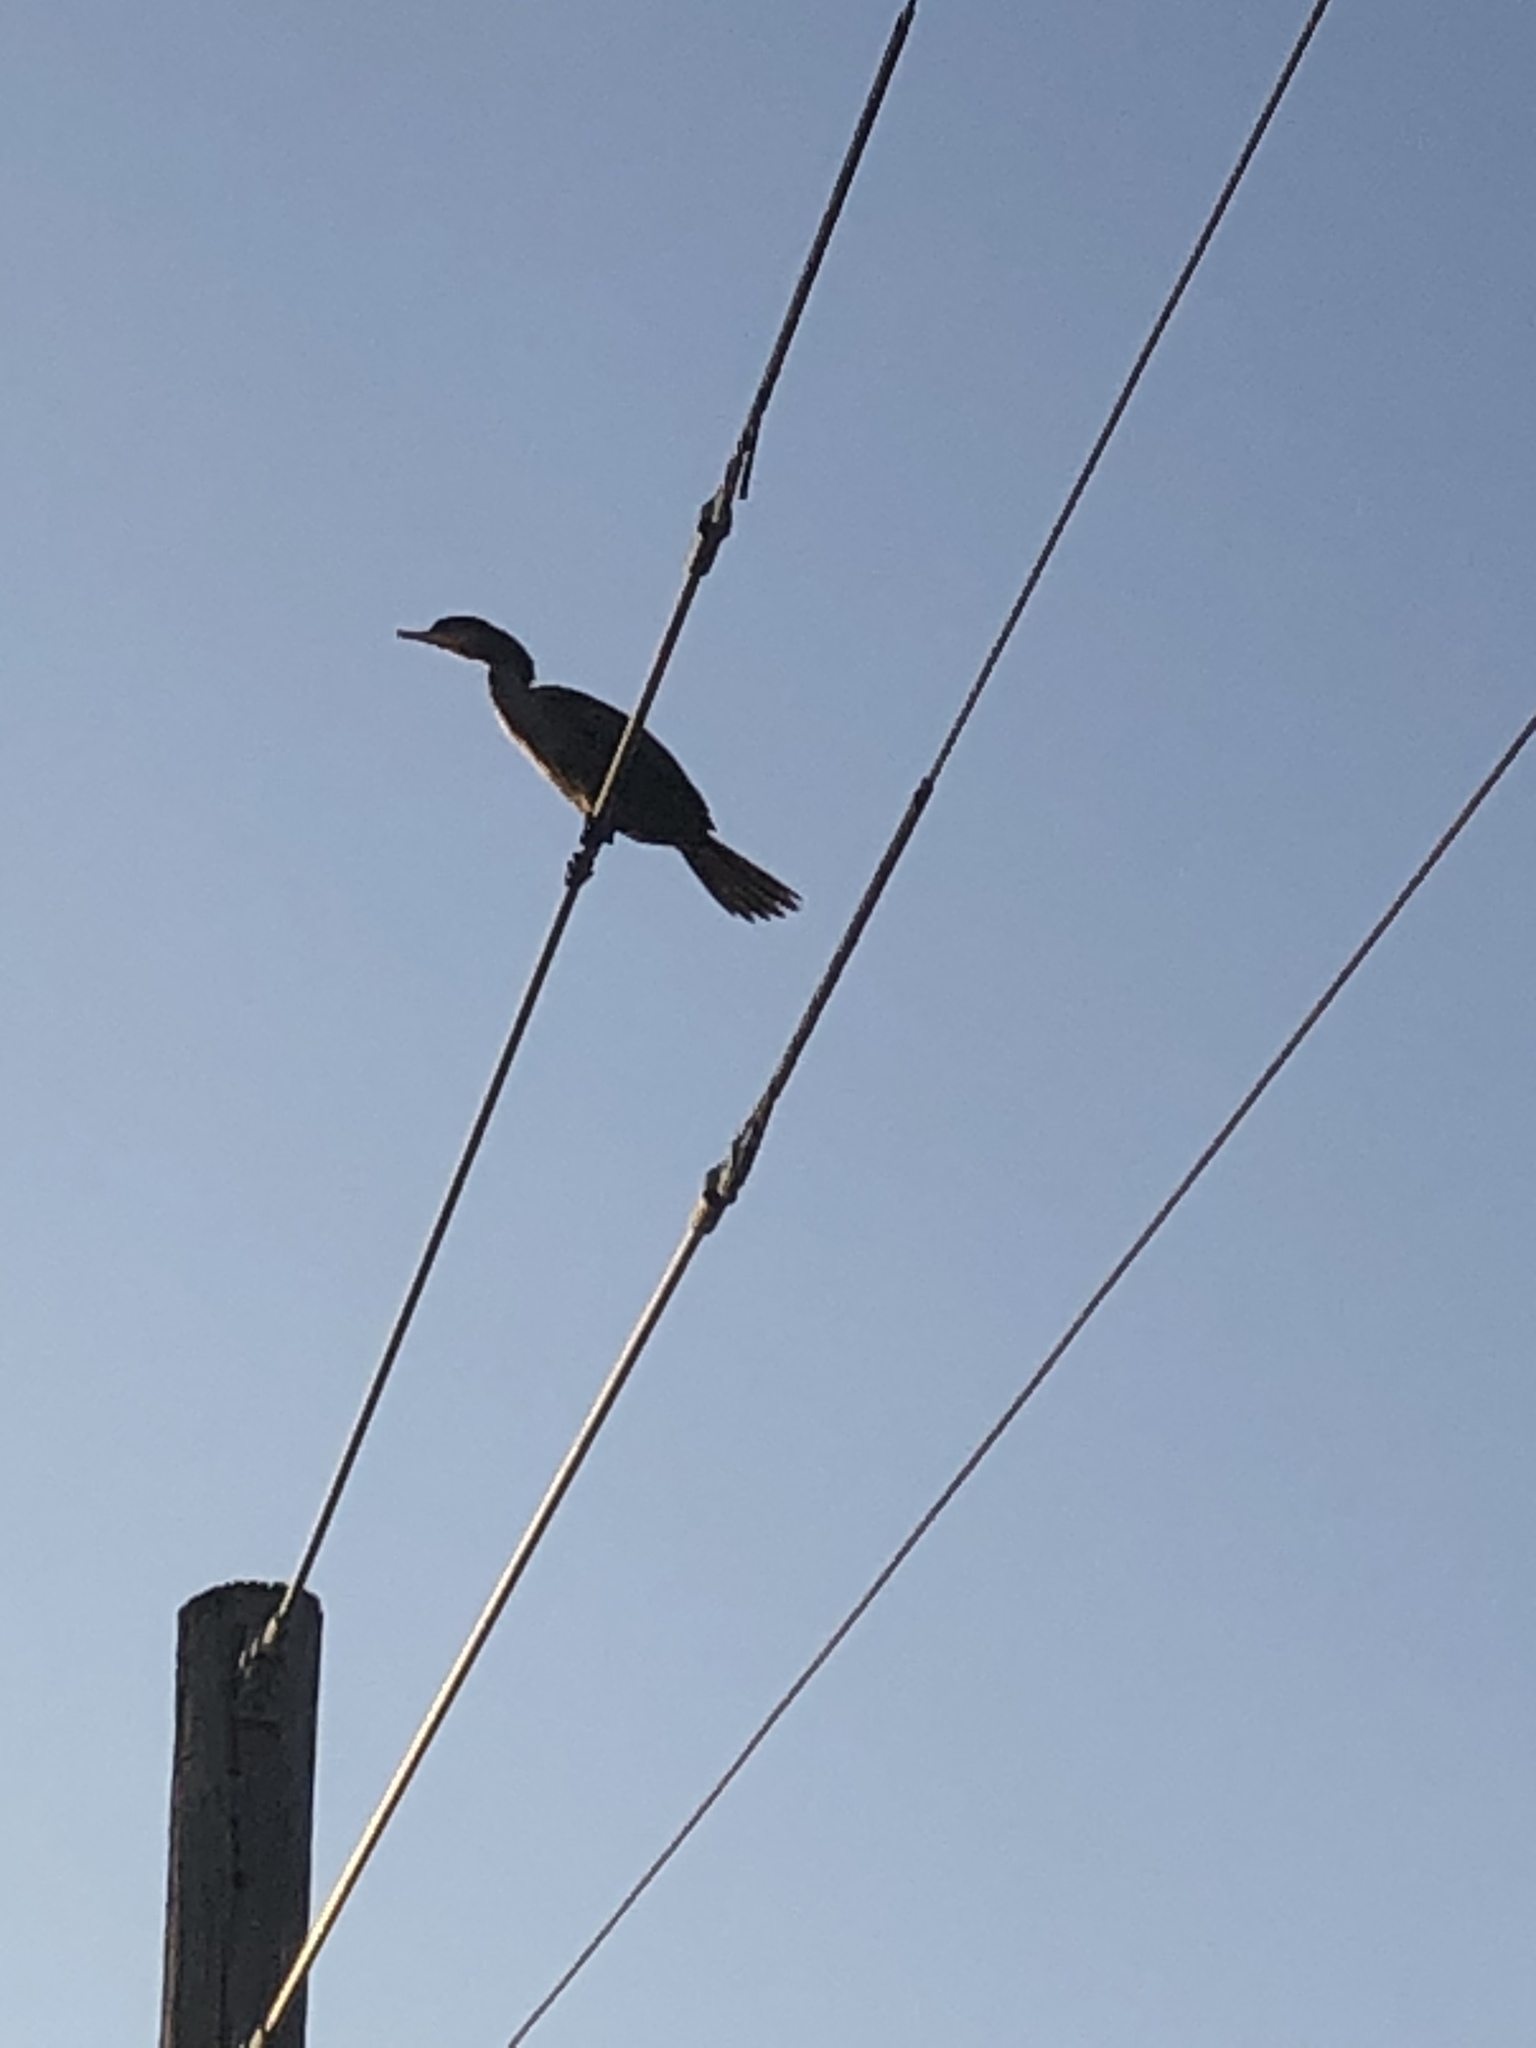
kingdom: Animalia
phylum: Chordata
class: Aves
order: Suliformes
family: Phalacrocoracidae
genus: Phalacrocorax
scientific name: Phalacrocorax brasilianus
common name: Neotropic cormorant
